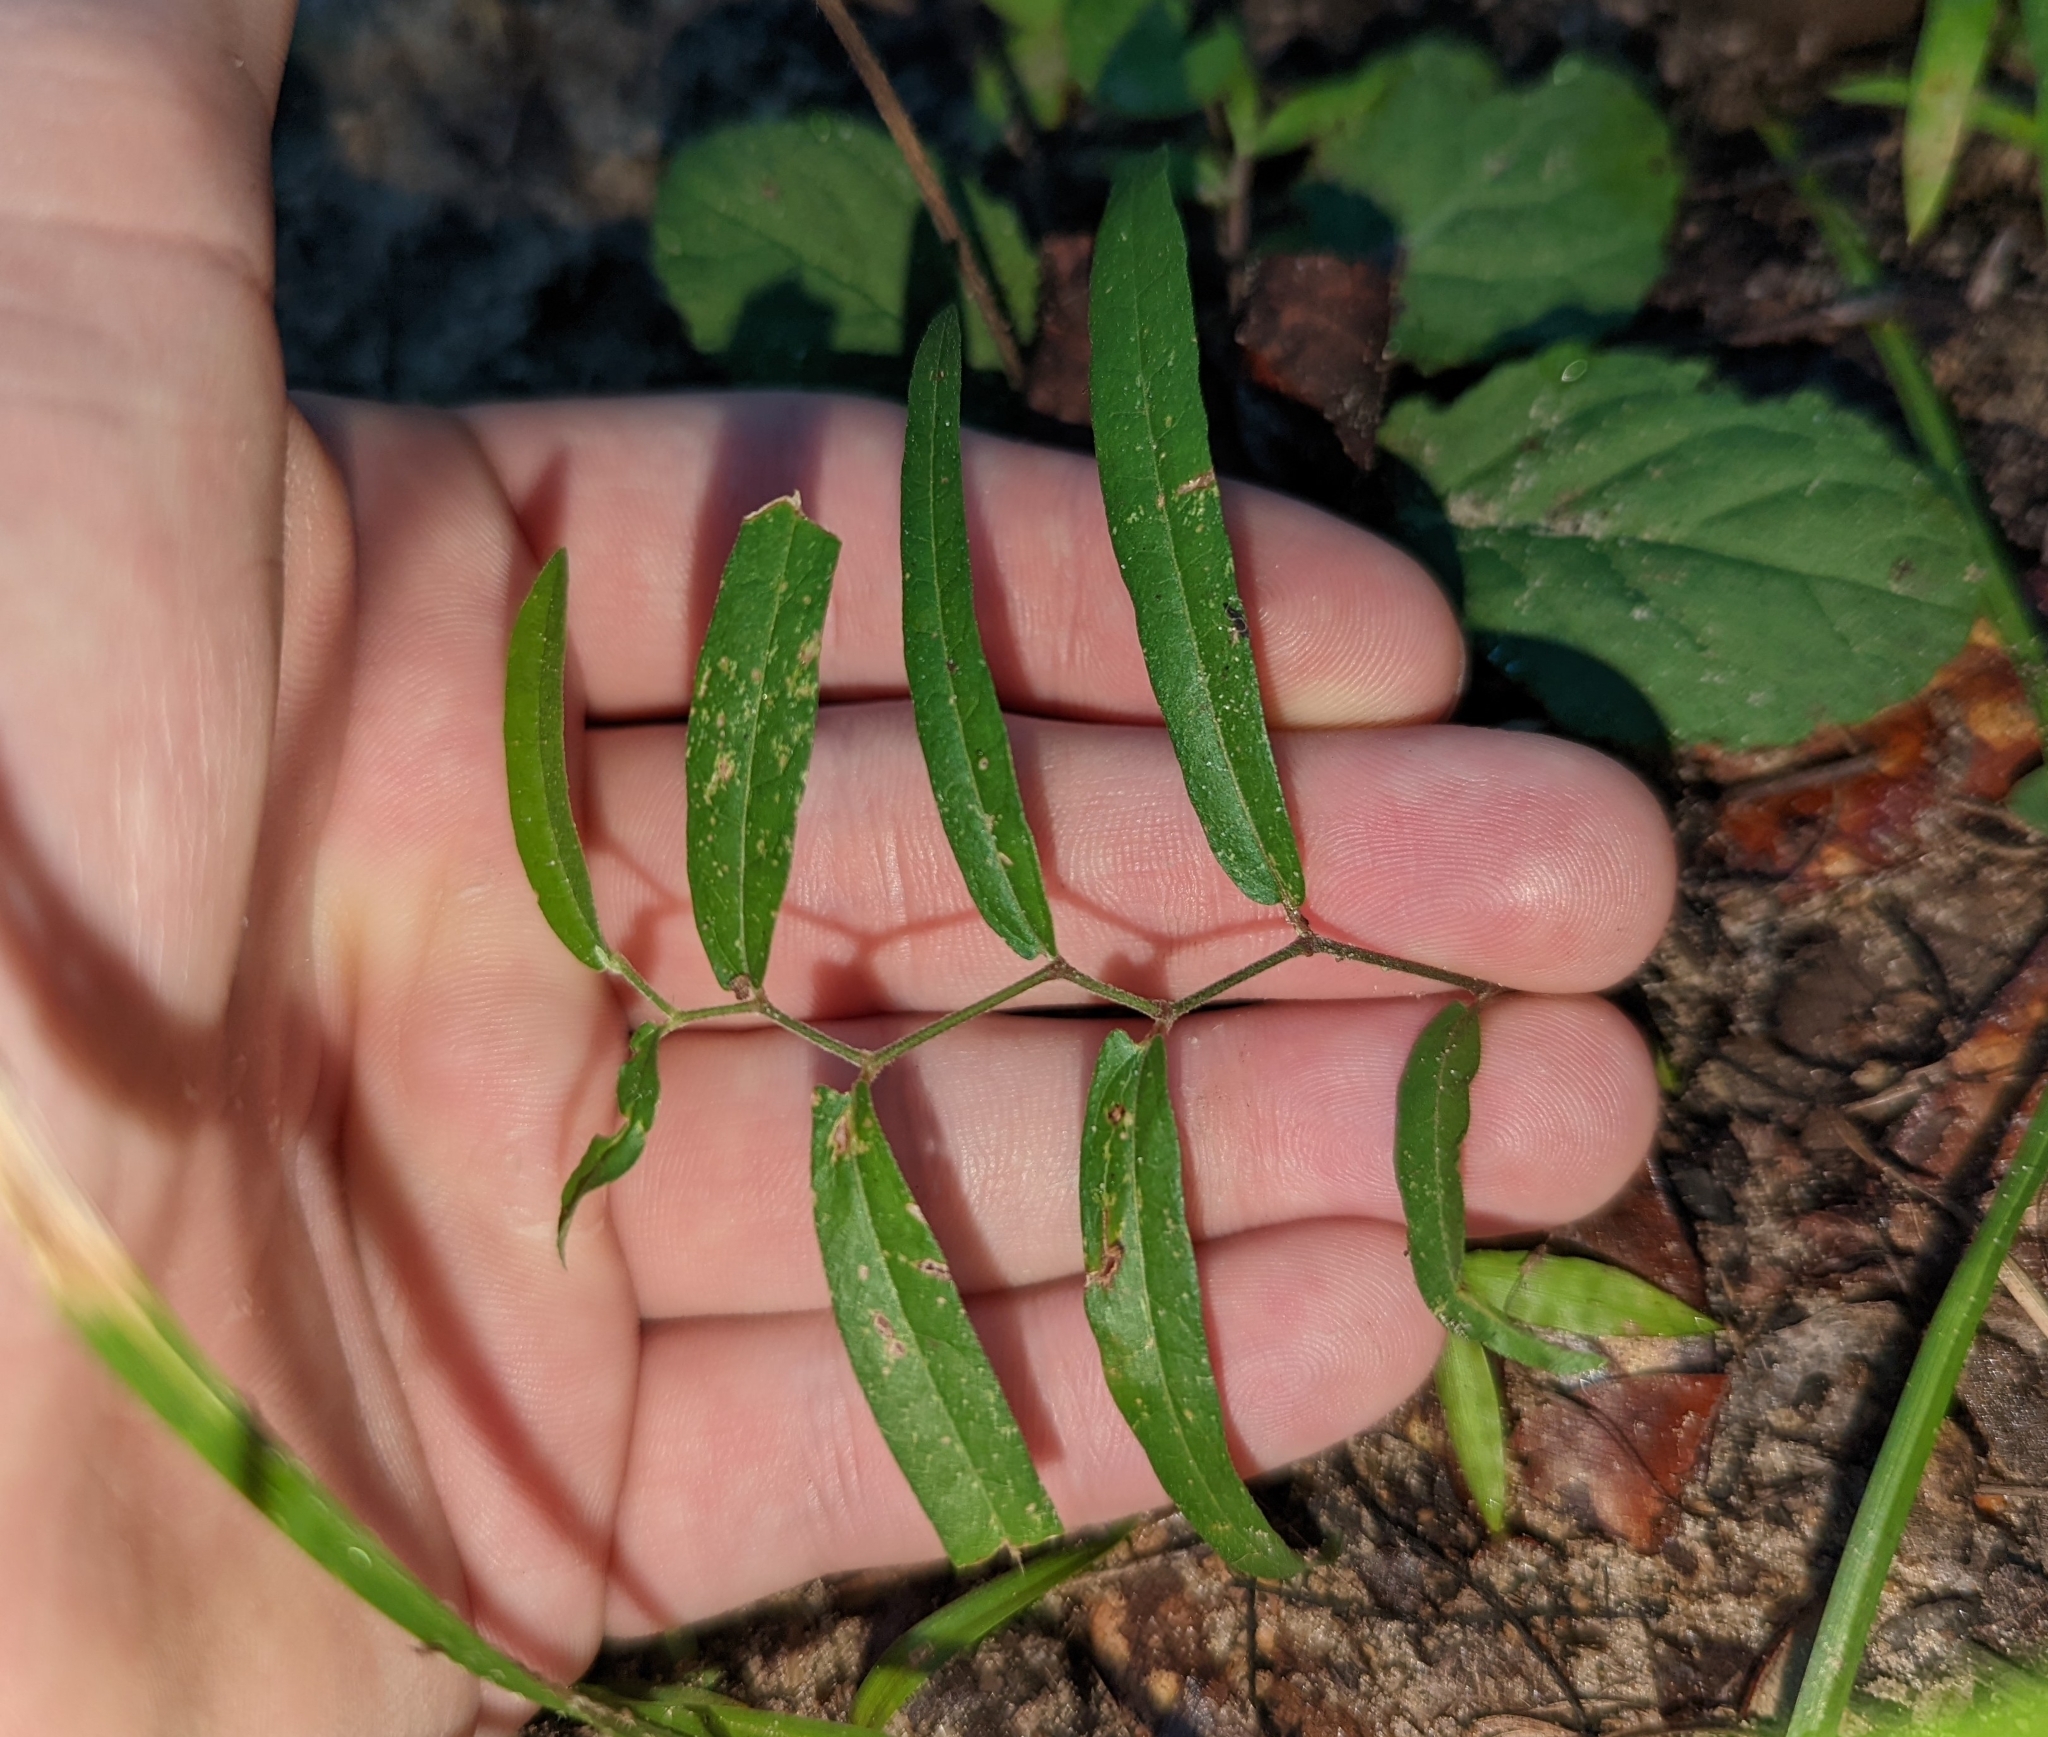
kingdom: Plantae
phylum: Tracheophyta
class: Magnoliopsida
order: Piperales
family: Aristolochiaceae
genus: Endodeca
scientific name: Endodeca serpentaria
